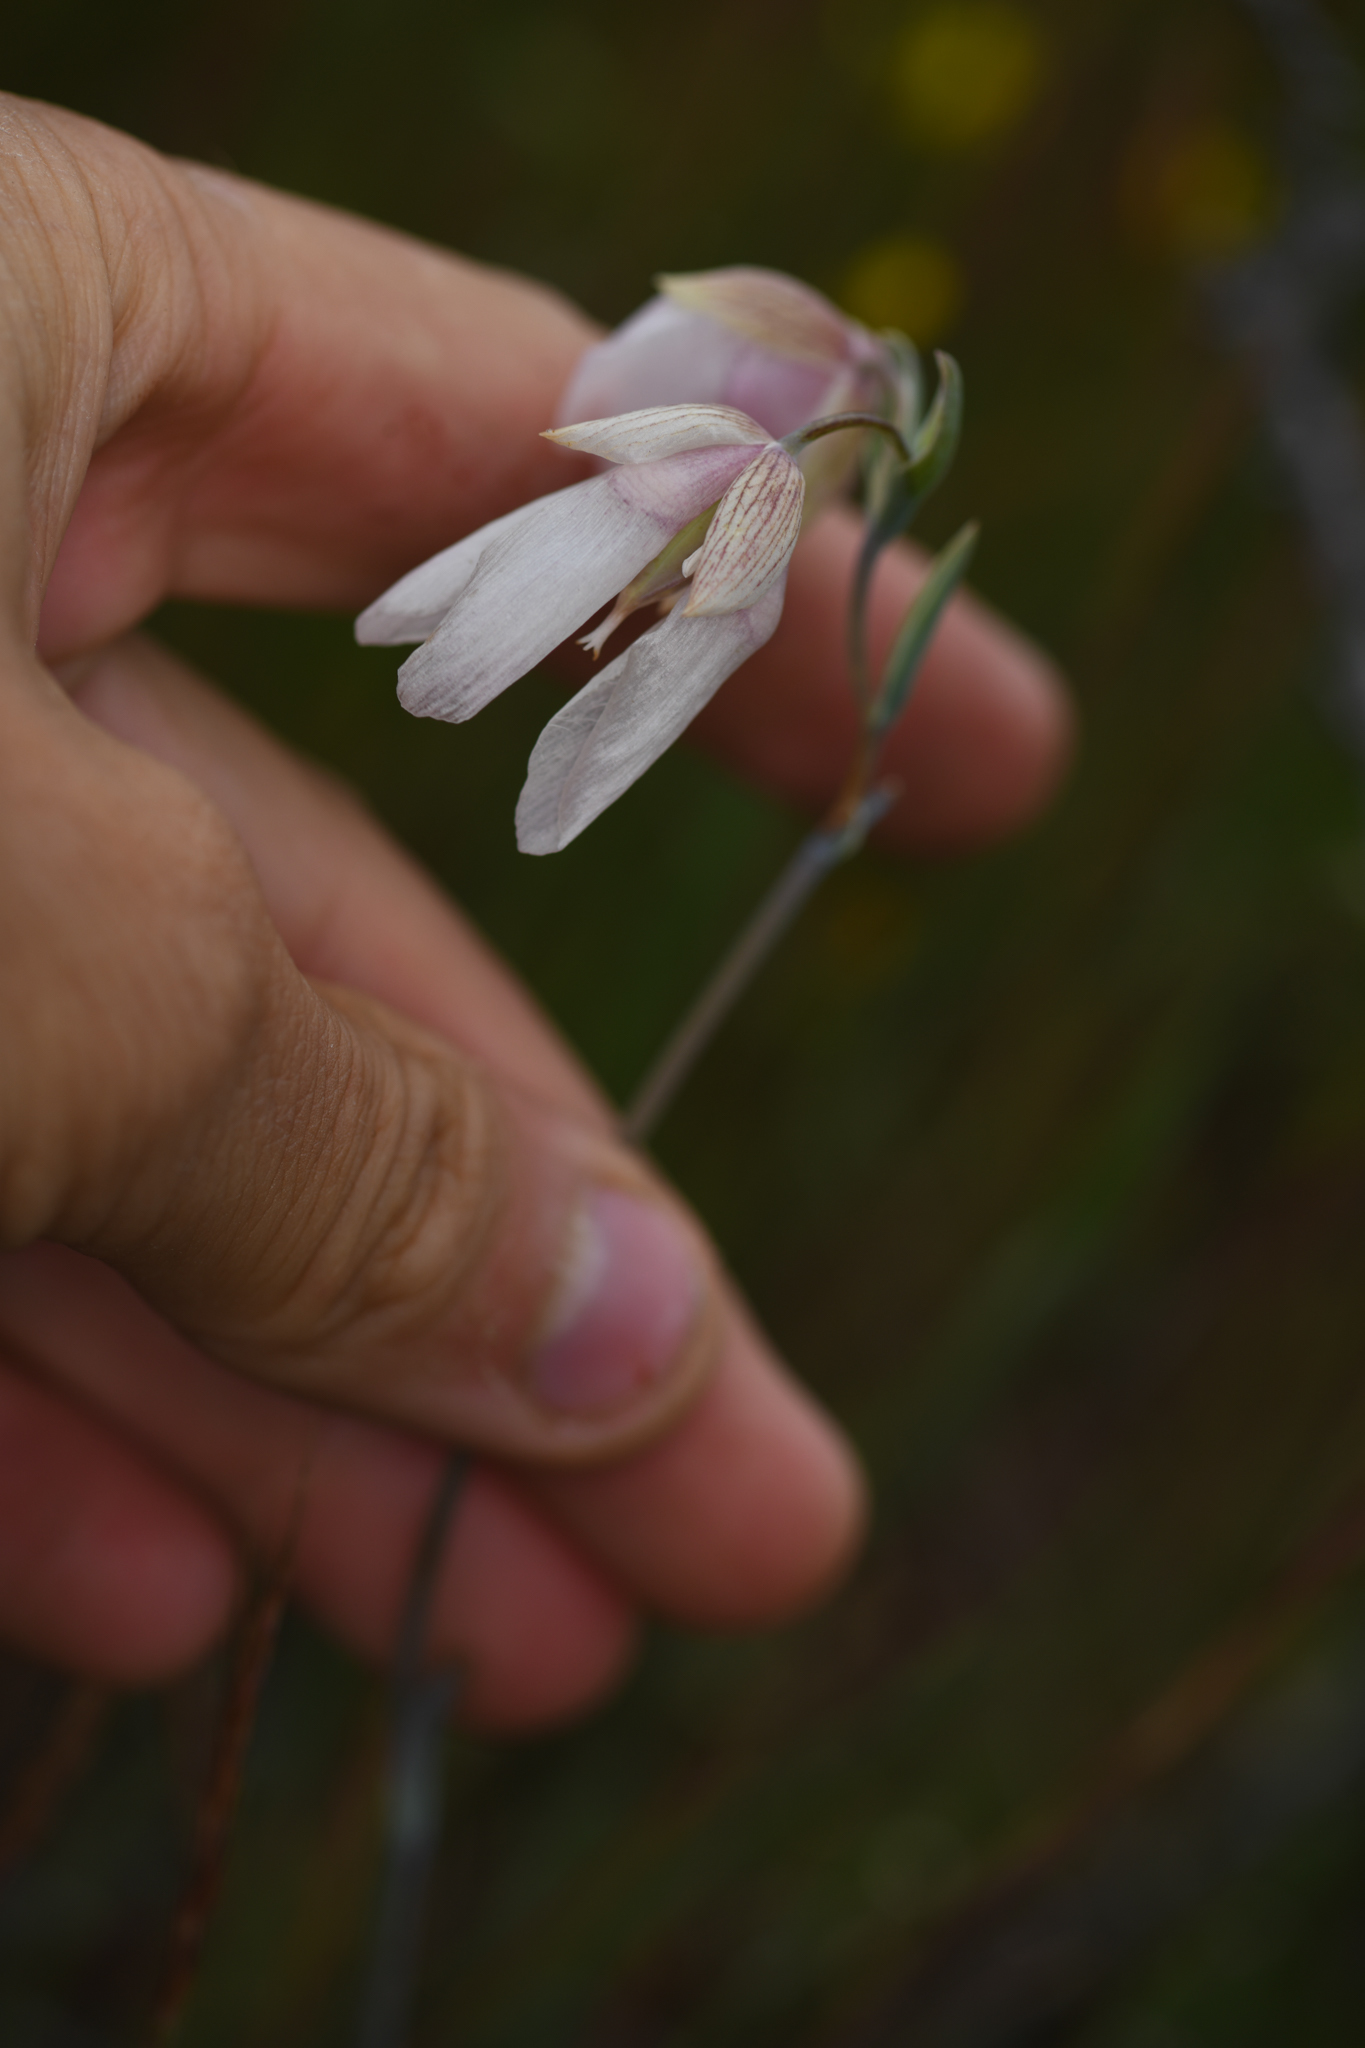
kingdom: Plantae
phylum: Tracheophyta
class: Liliopsida
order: Liliales
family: Liliaceae
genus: Calochortus
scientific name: Calochortus albus
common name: Fairy-lantern
